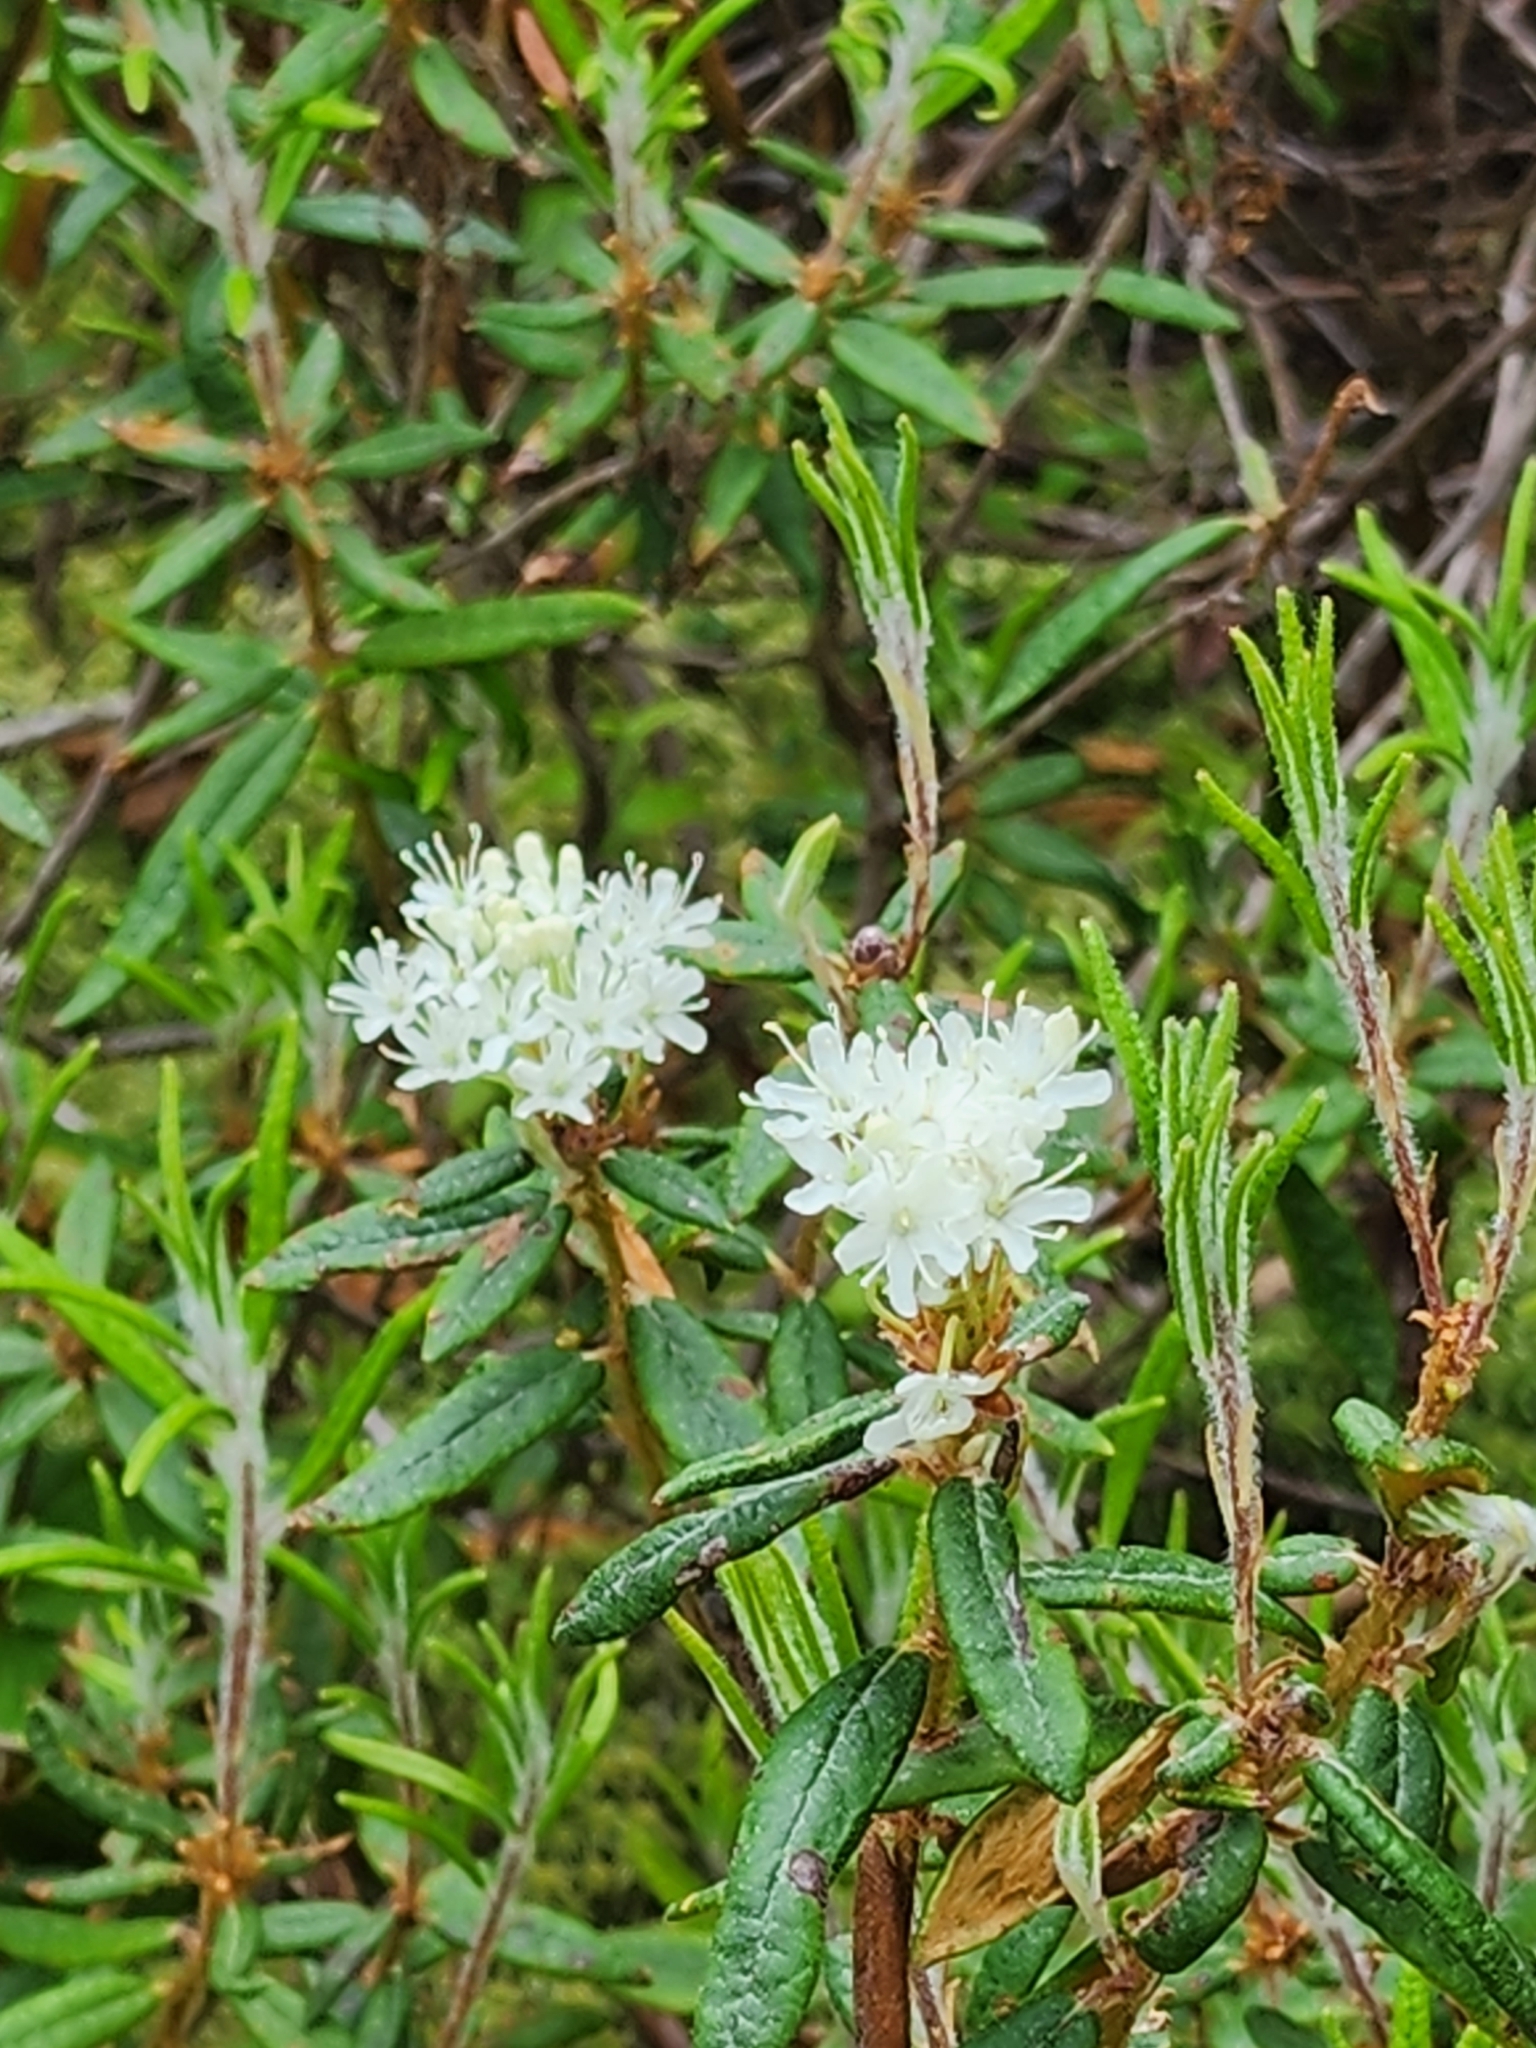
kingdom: Plantae
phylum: Tracheophyta
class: Magnoliopsida
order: Ericales
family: Ericaceae
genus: Rhododendron
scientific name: Rhododendron groenlandicum
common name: Bog labrador tea
